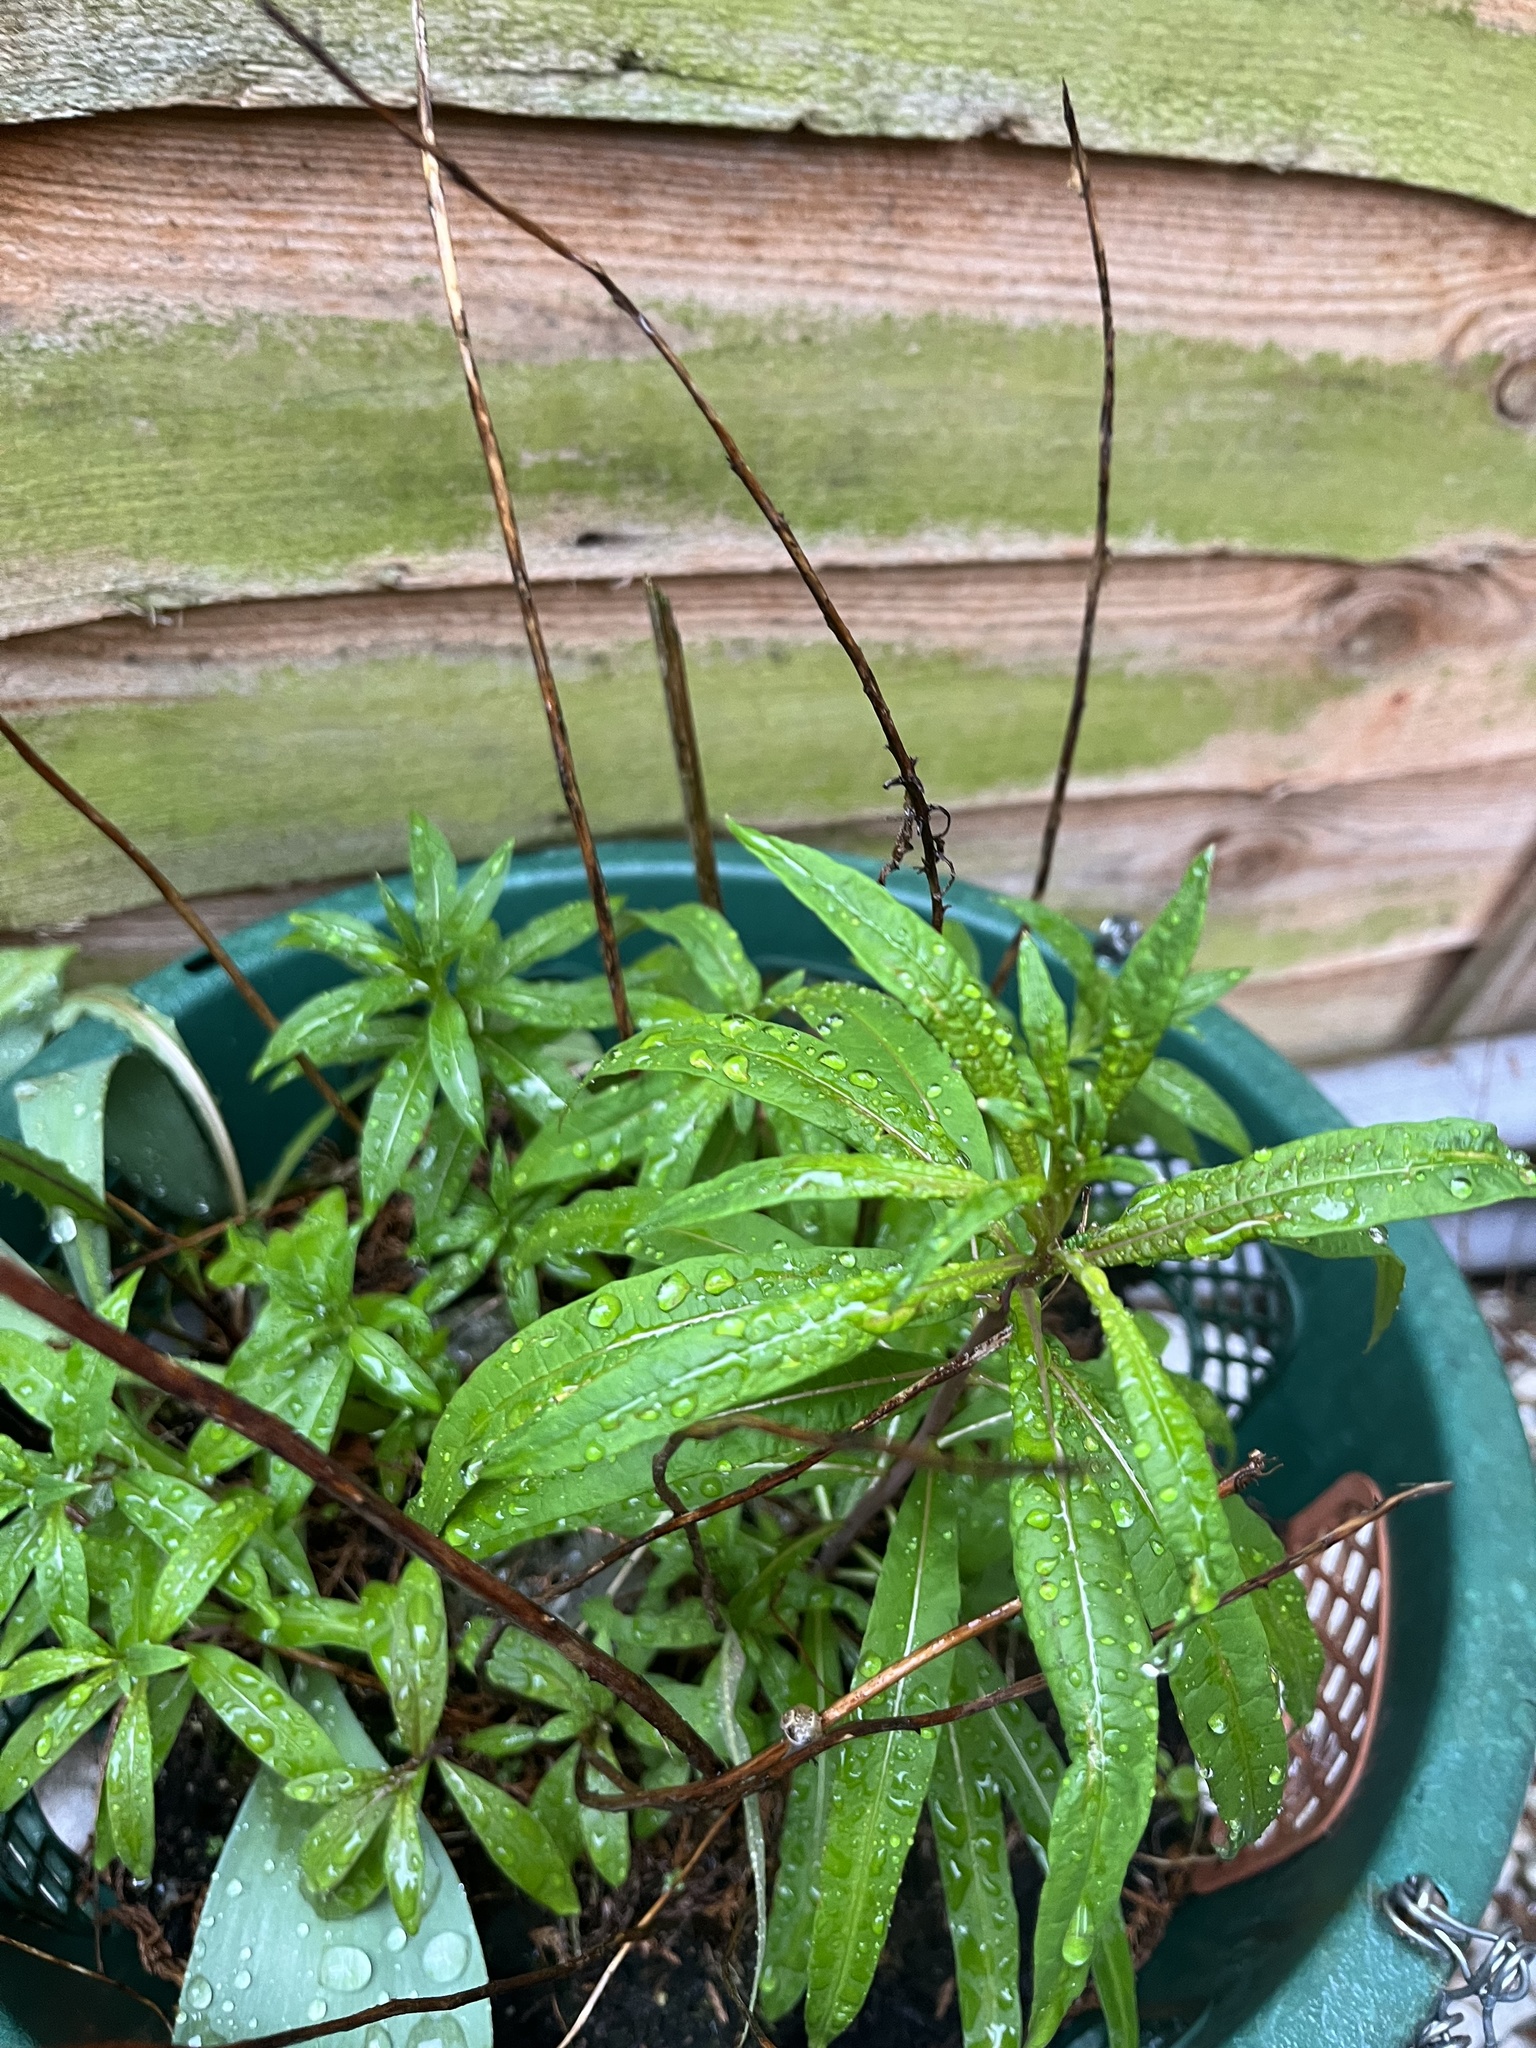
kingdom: Plantae
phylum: Tracheophyta
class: Magnoliopsida
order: Myrtales
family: Onagraceae
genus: Chamaenerion
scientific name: Chamaenerion angustifolium
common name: Fireweed
